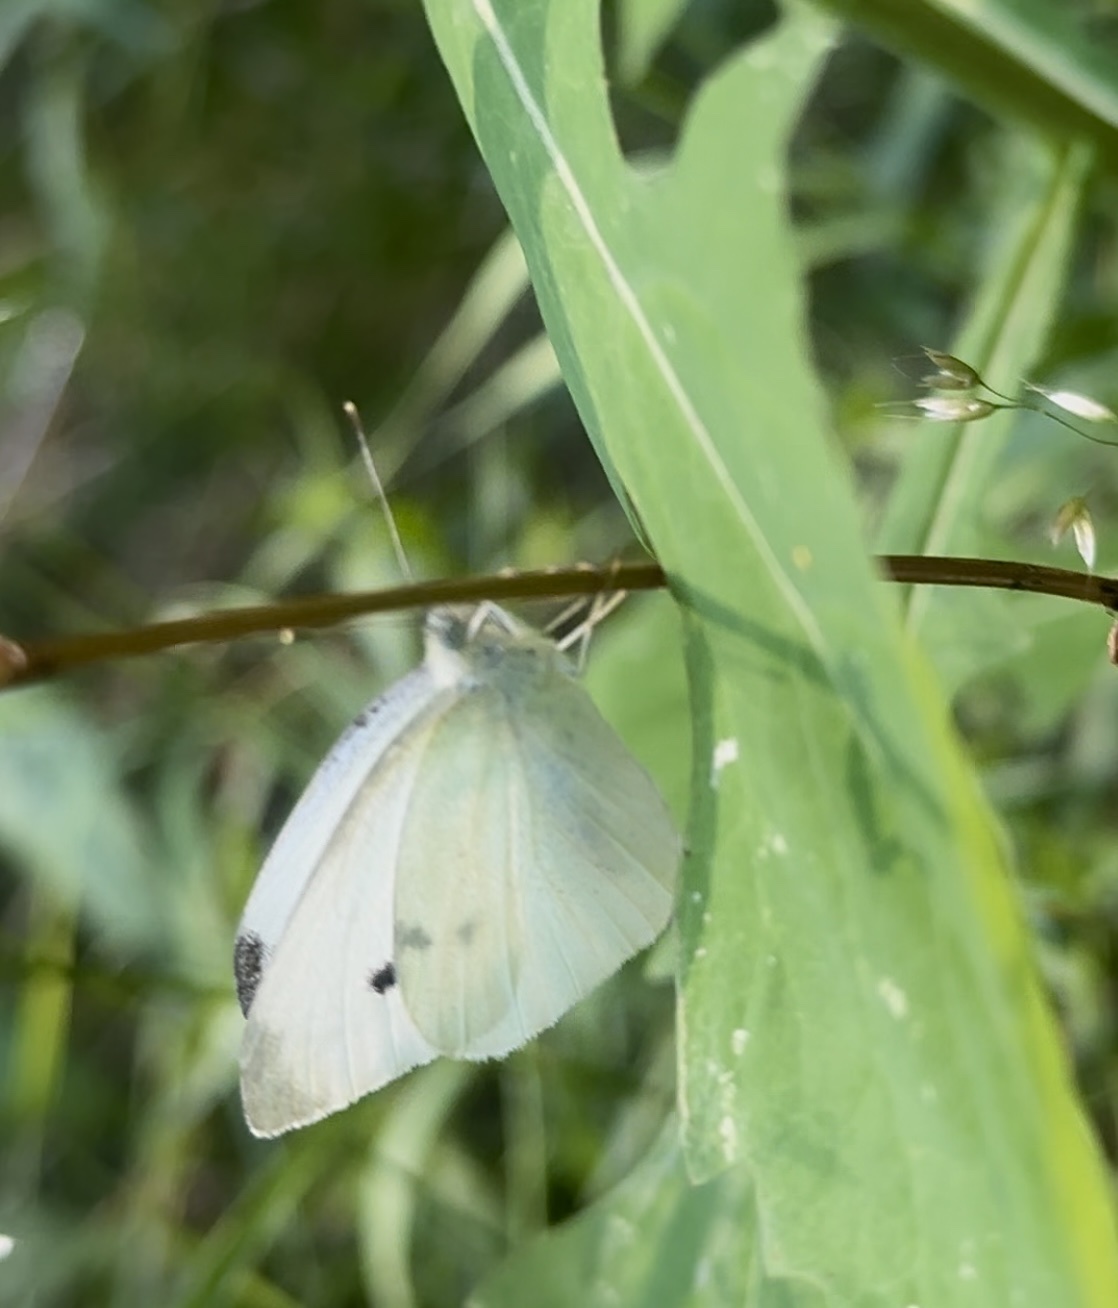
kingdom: Animalia
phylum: Arthropoda
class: Insecta
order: Lepidoptera
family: Pieridae
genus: Pieris
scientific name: Pieris rapae
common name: Small white
